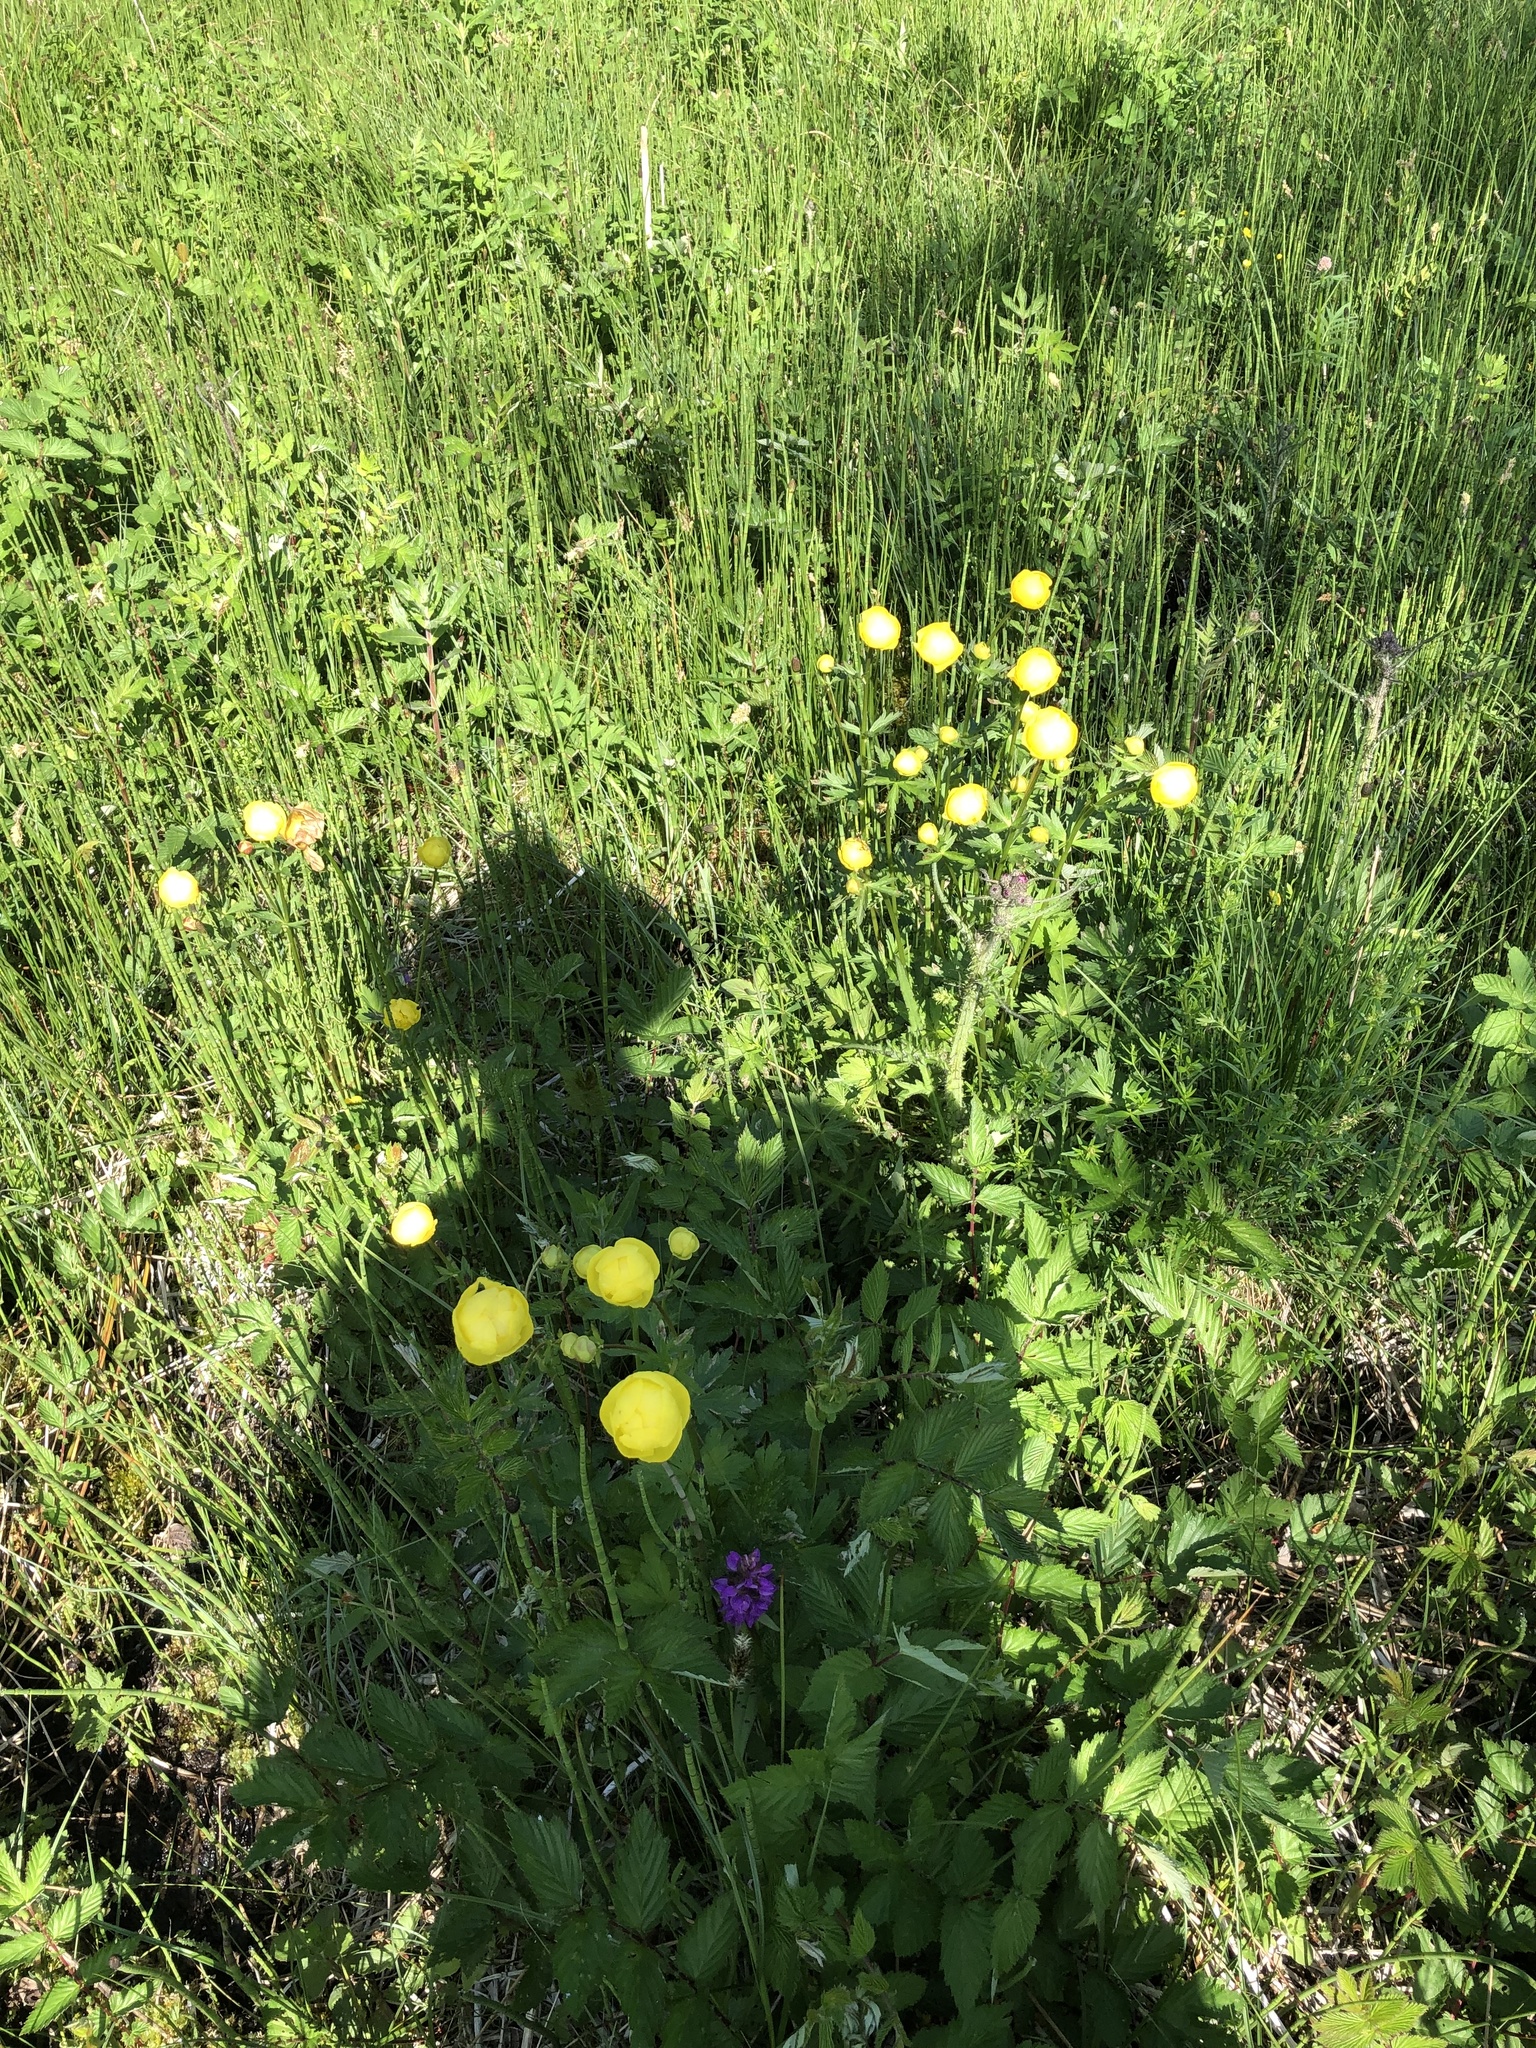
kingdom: Plantae
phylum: Tracheophyta
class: Magnoliopsida
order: Ranunculales
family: Ranunculaceae
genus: Trollius
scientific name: Trollius europaeus
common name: European globeflower
